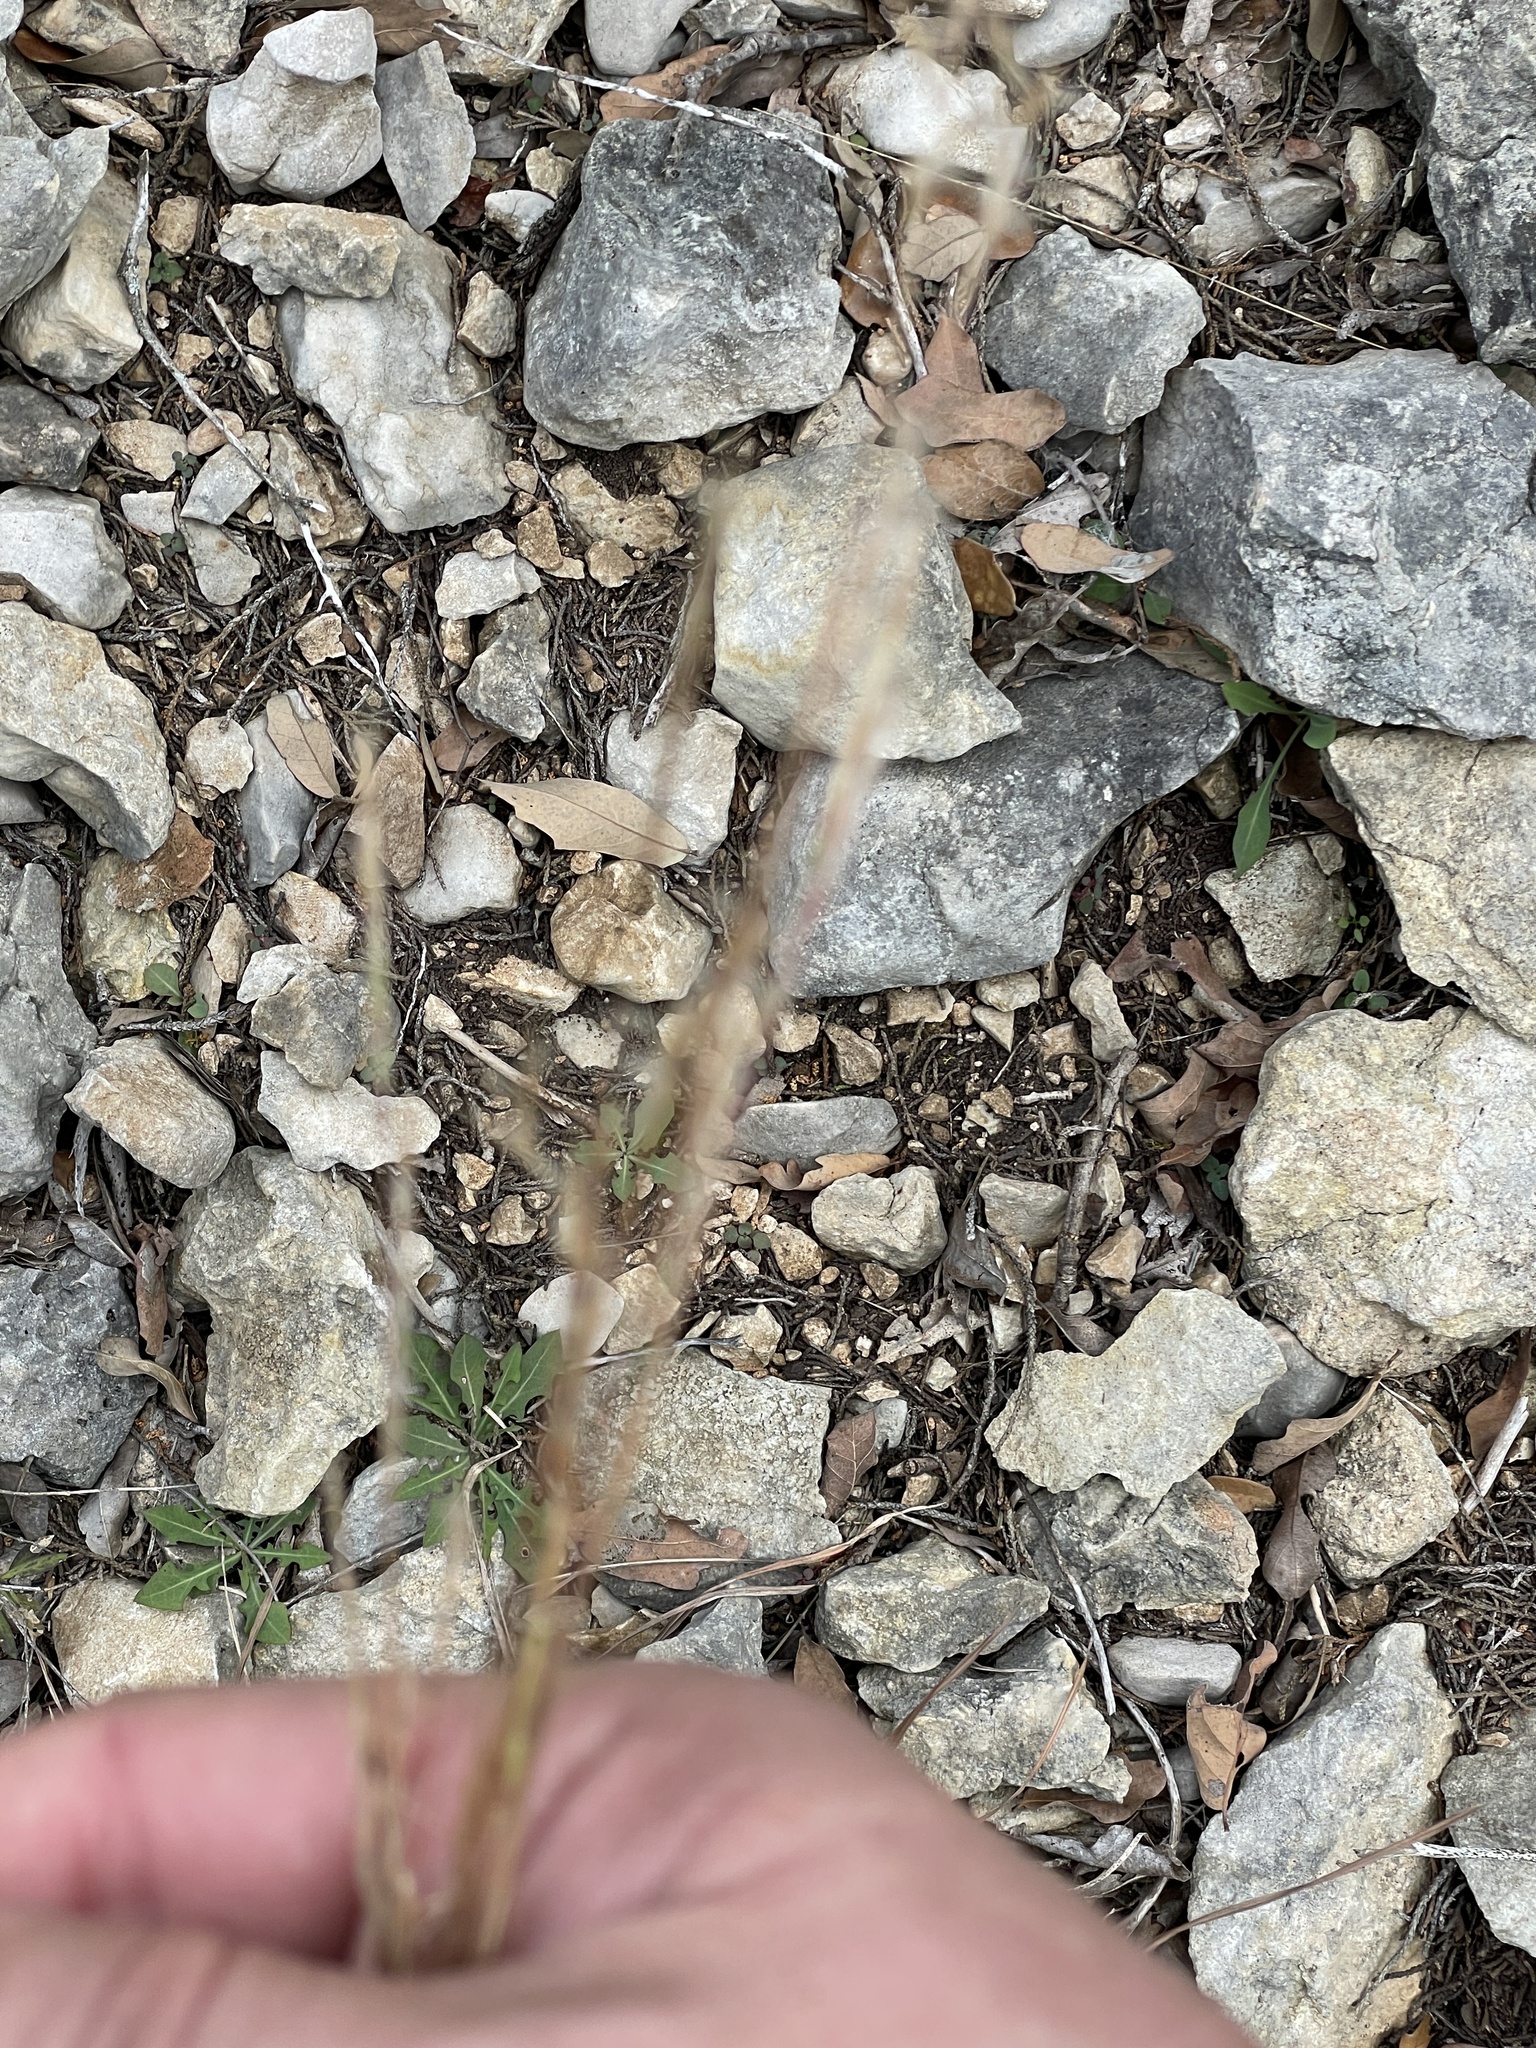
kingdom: Plantae
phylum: Tracheophyta
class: Liliopsida
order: Poales
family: Poaceae
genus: Schizachyrium
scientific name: Schizachyrium scoparium
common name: Little bluestem
